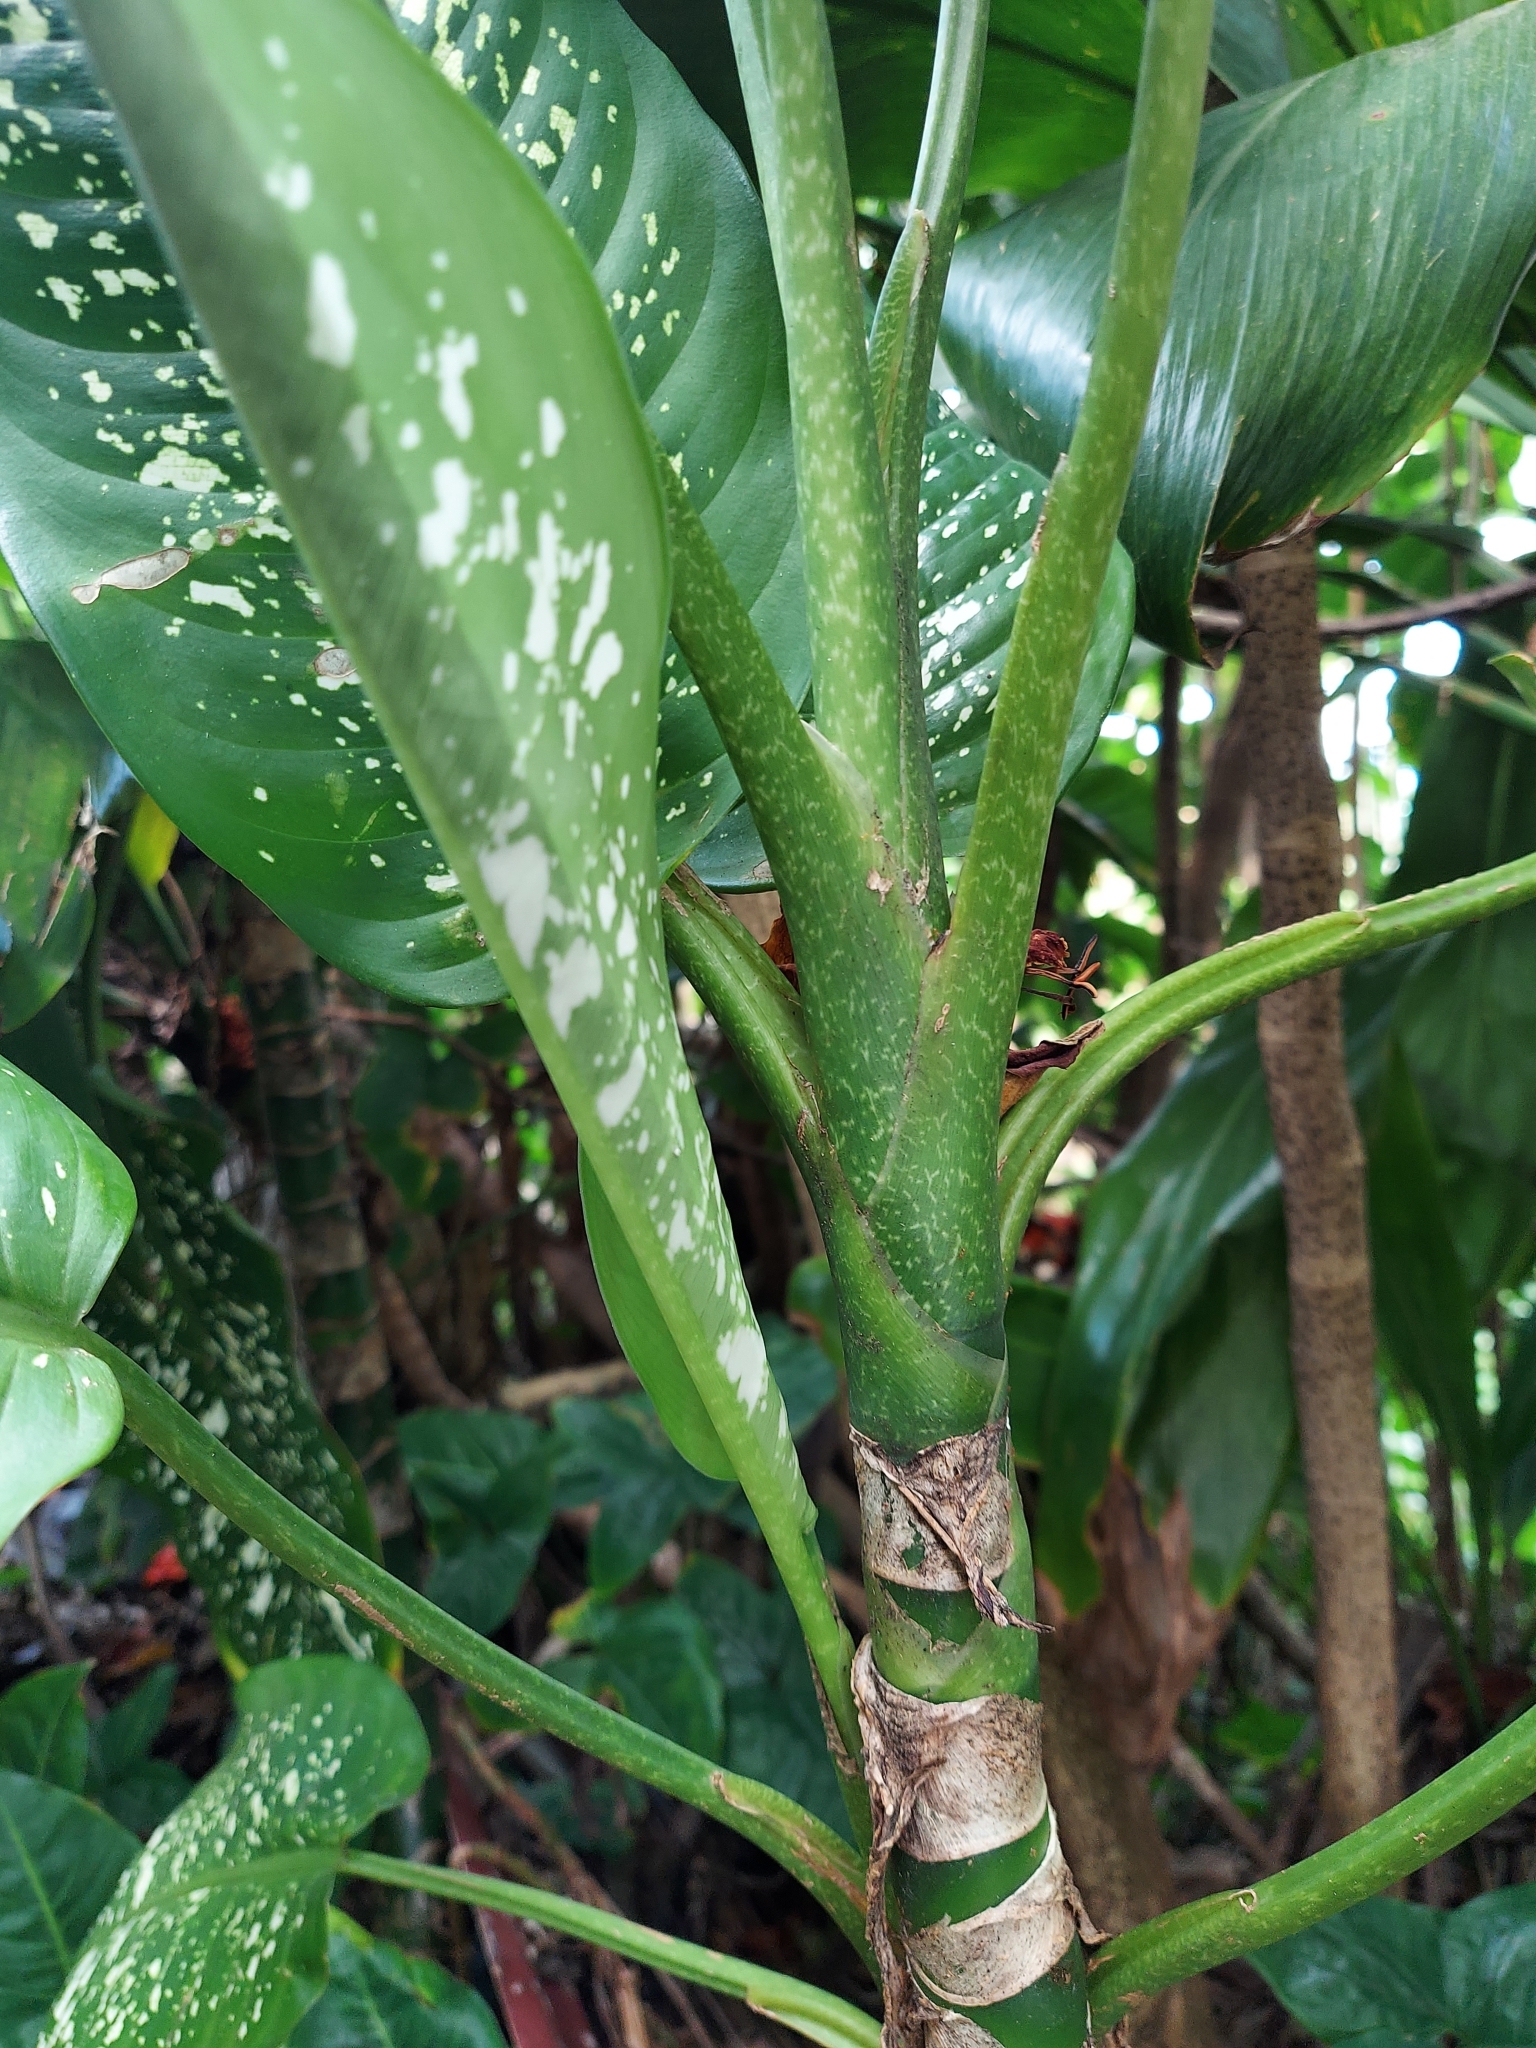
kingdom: Plantae
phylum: Tracheophyta
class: Liliopsida
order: Alismatales
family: Araceae
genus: Dieffenbachia
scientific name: Dieffenbachia seguine
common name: Dumbcane
